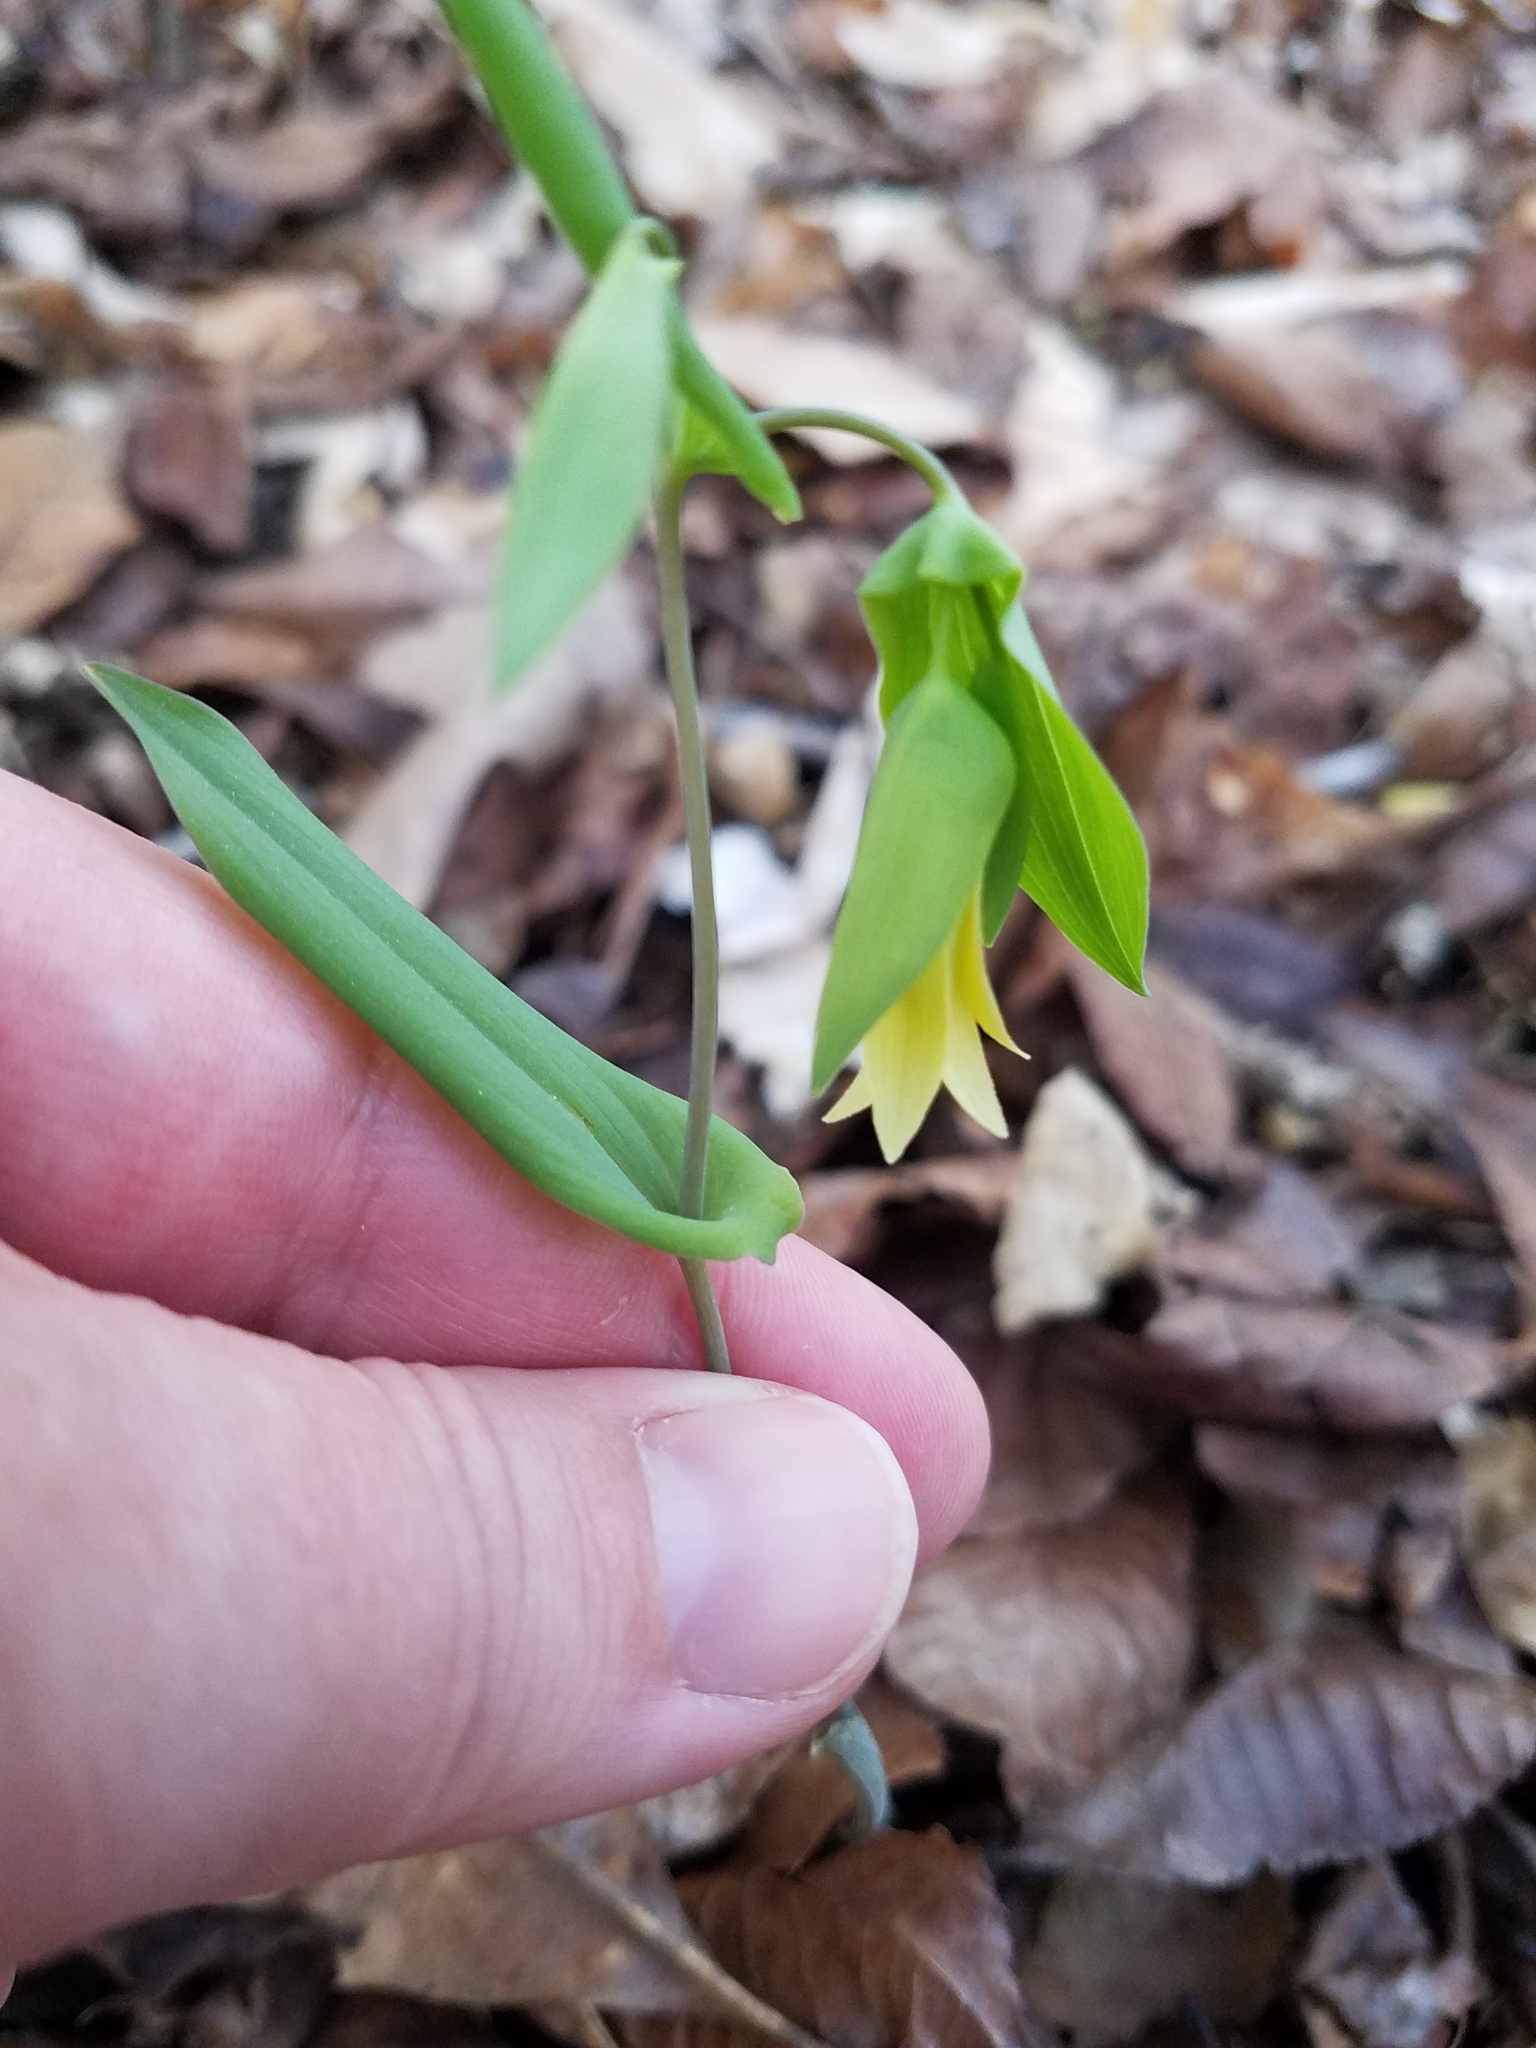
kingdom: Plantae
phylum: Tracheophyta
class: Liliopsida
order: Liliales
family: Colchicaceae
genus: Uvularia
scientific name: Uvularia perfoliata
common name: Perfoliate bellwort
